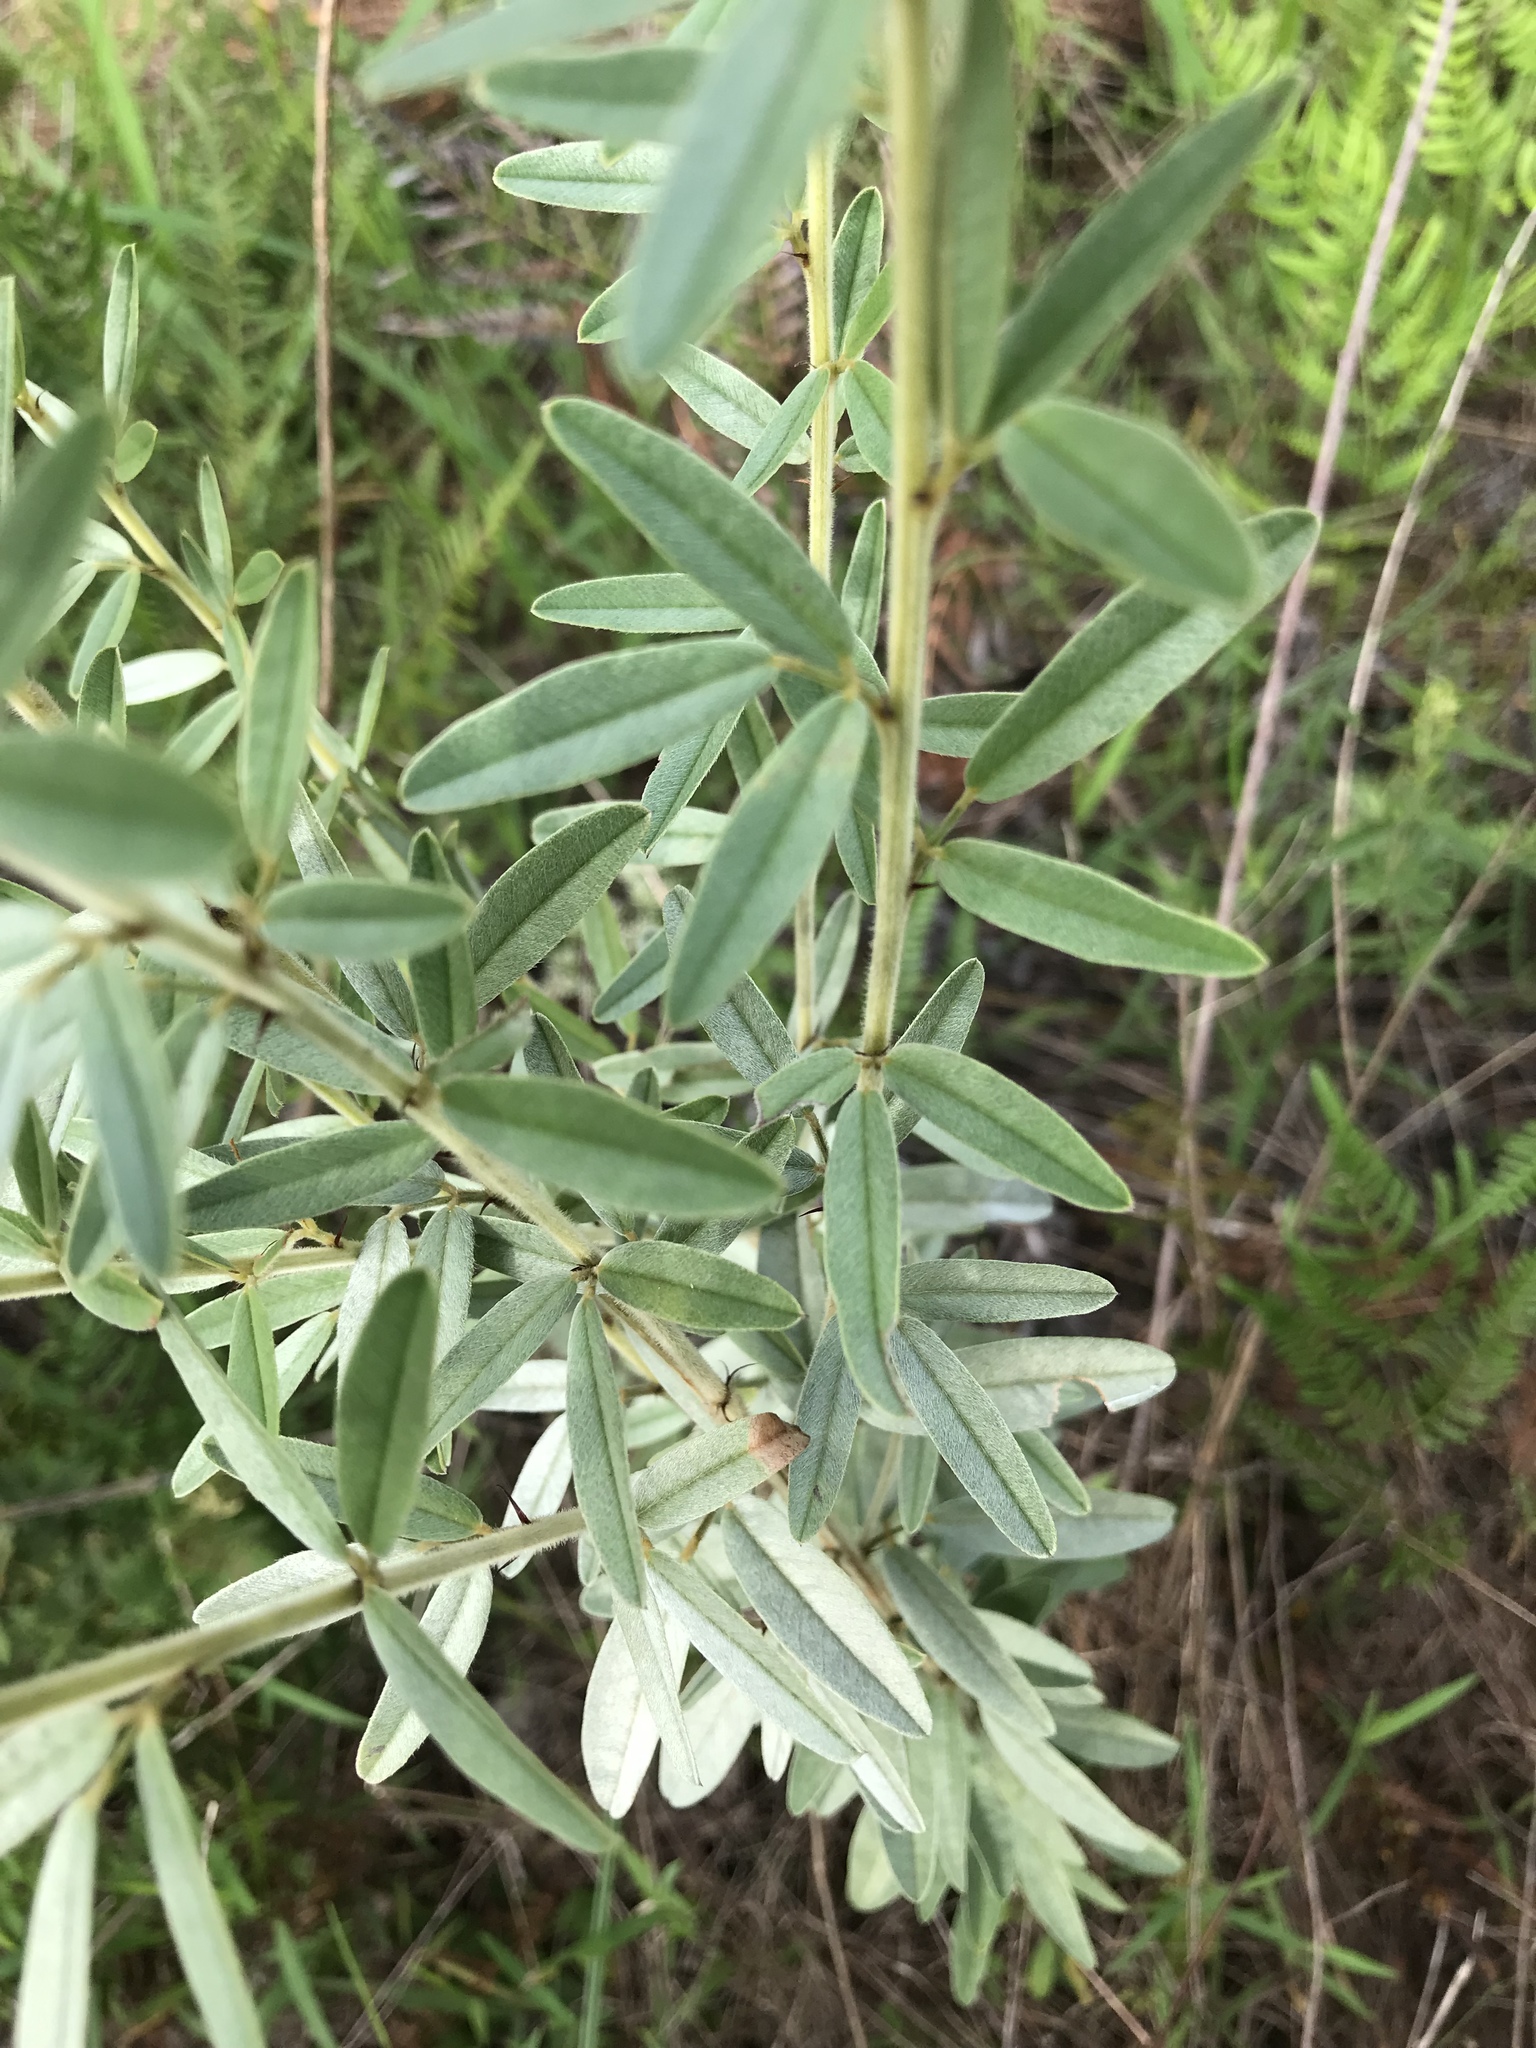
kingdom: Plantae
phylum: Tracheophyta
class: Magnoliopsida
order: Fabales
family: Fabaceae
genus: Lespedeza
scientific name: Lespedeza capitata
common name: Dusty clover
